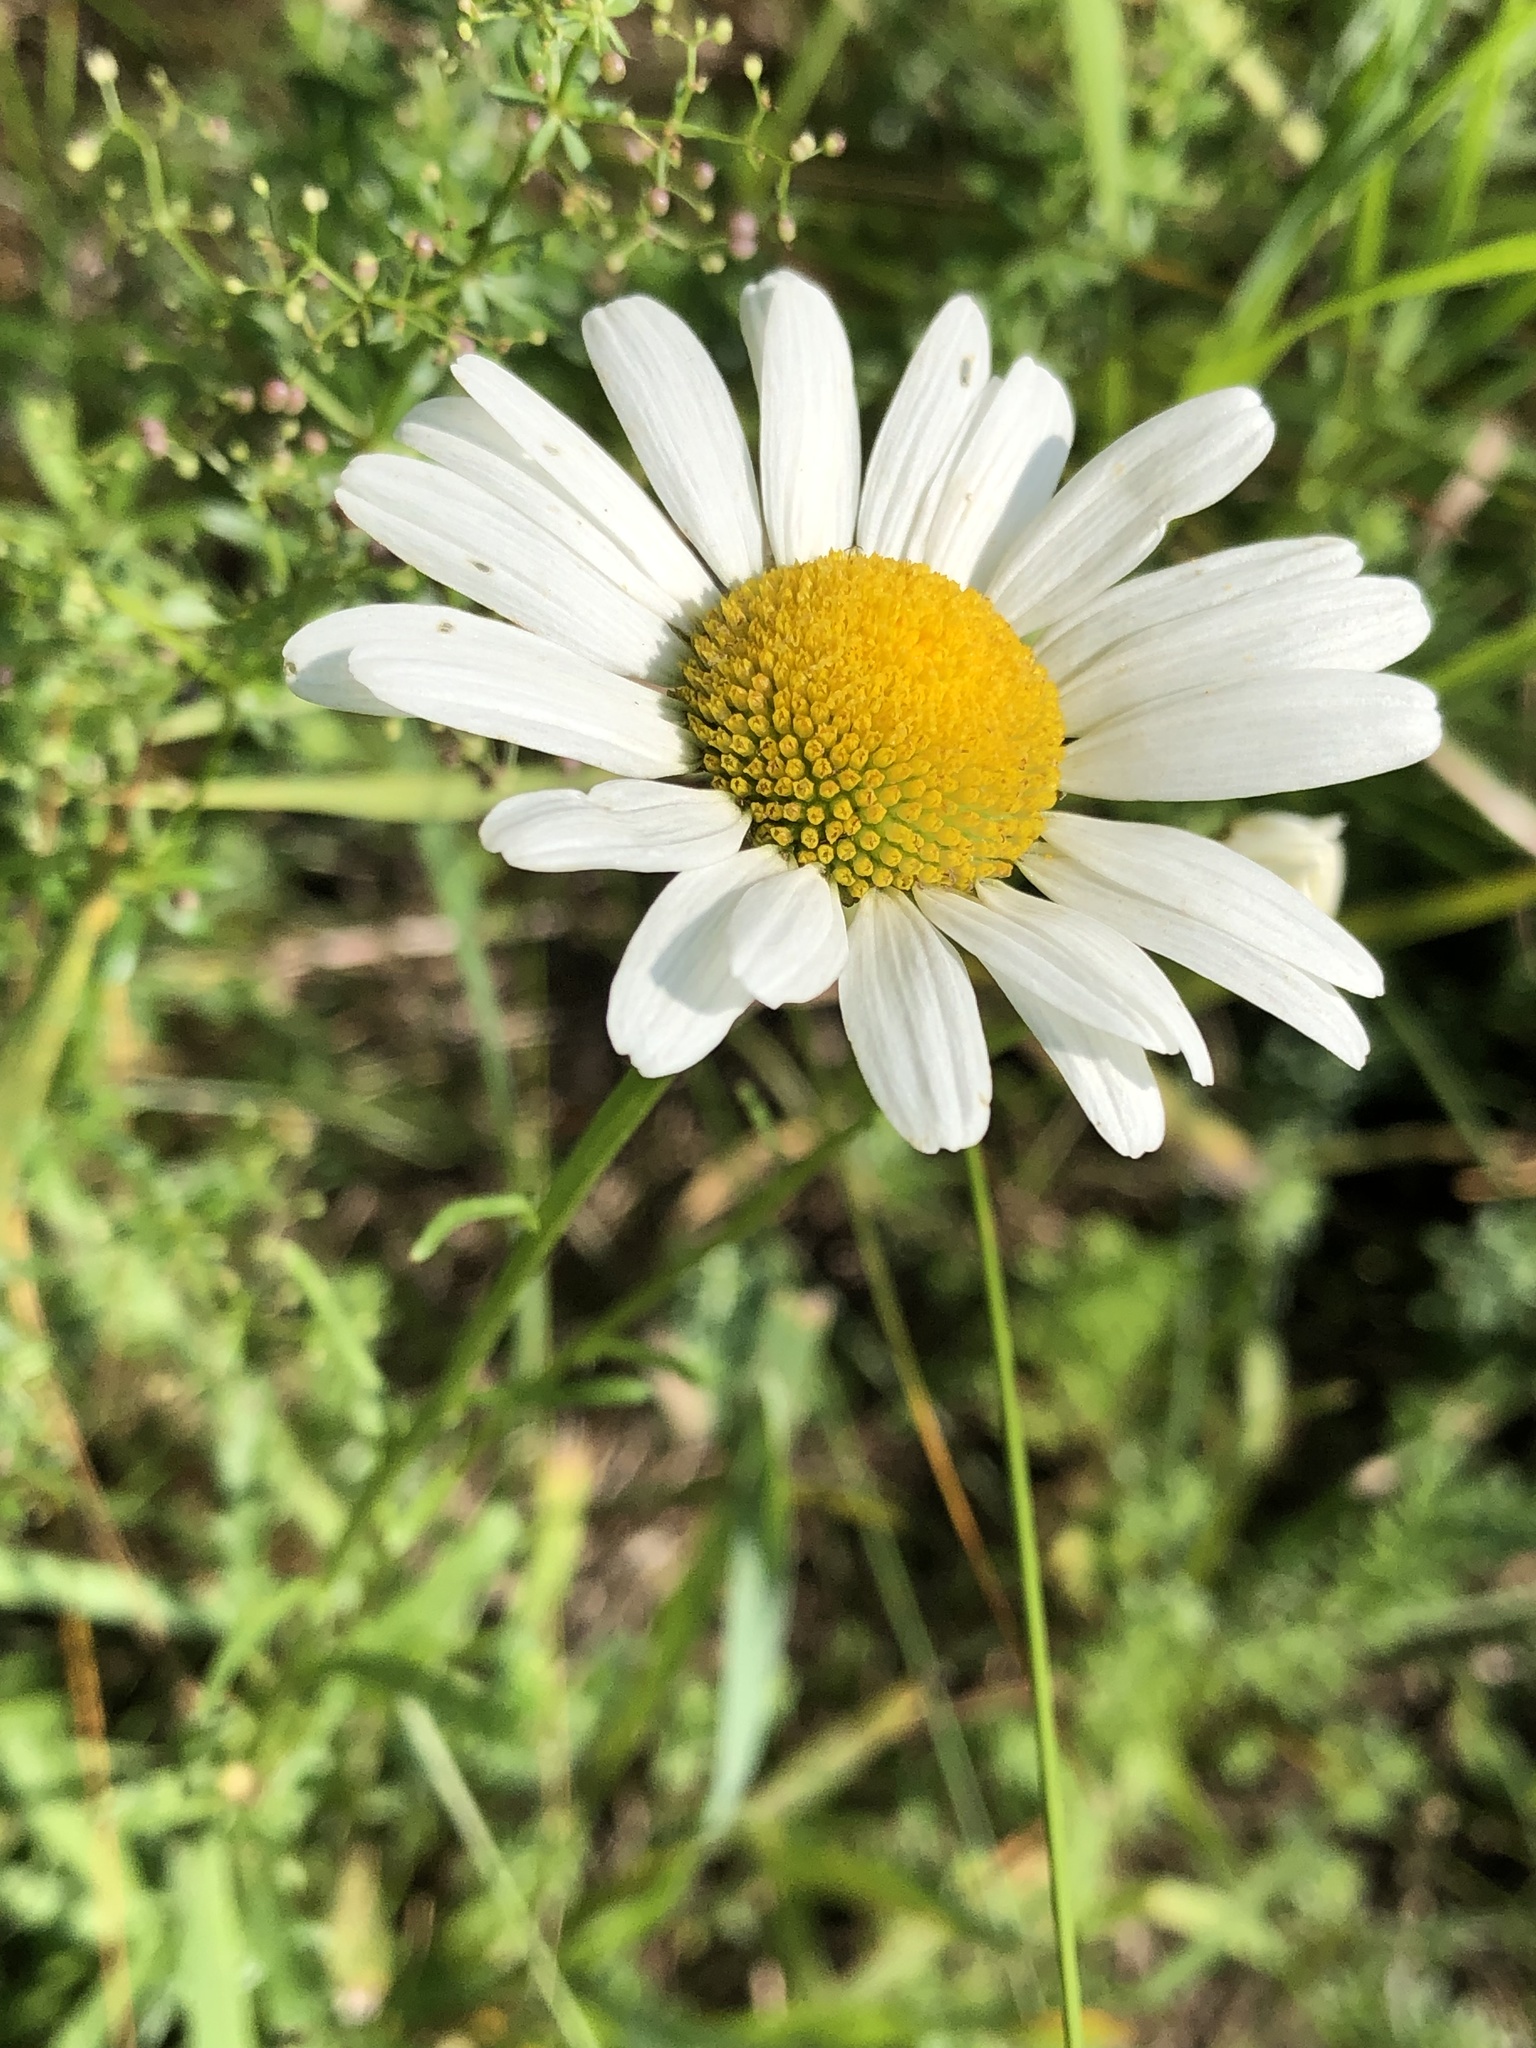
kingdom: Plantae
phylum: Tracheophyta
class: Magnoliopsida
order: Asterales
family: Asteraceae
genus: Leucanthemum
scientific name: Leucanthemum vulgare
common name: Oxeye daisy
